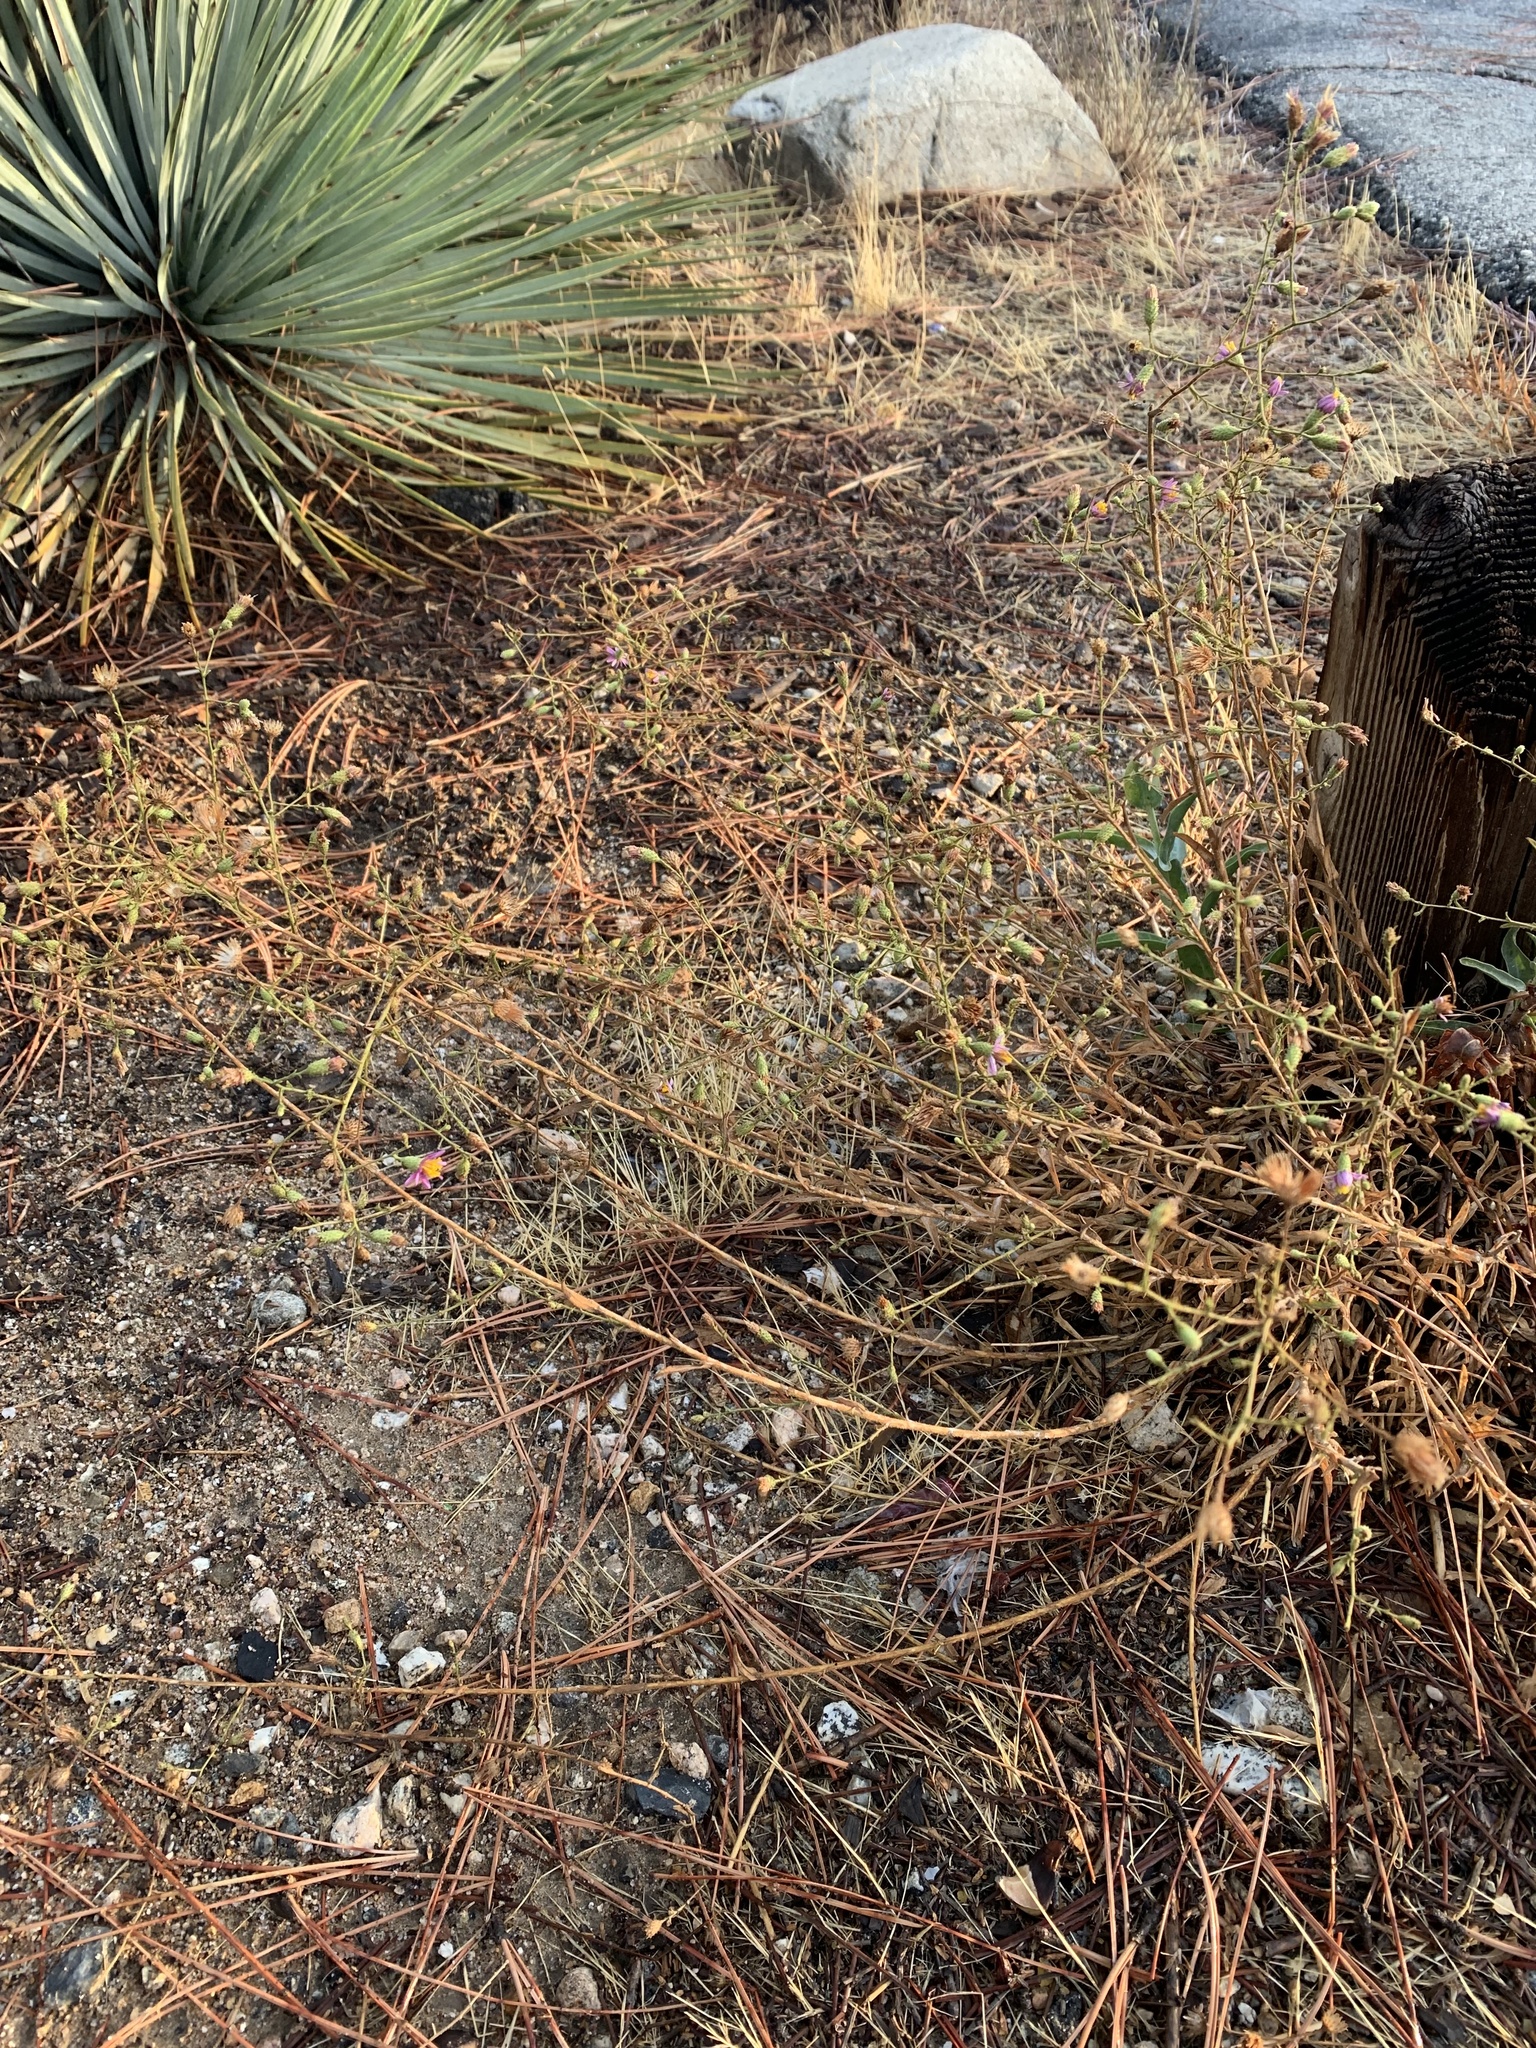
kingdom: Plantae
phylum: Tracheophyta
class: Magnoliopsida
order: Asterales
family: Asteraceae
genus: Corethrogyne
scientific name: Corethrogyne filaginifolia
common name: Sand-aster
